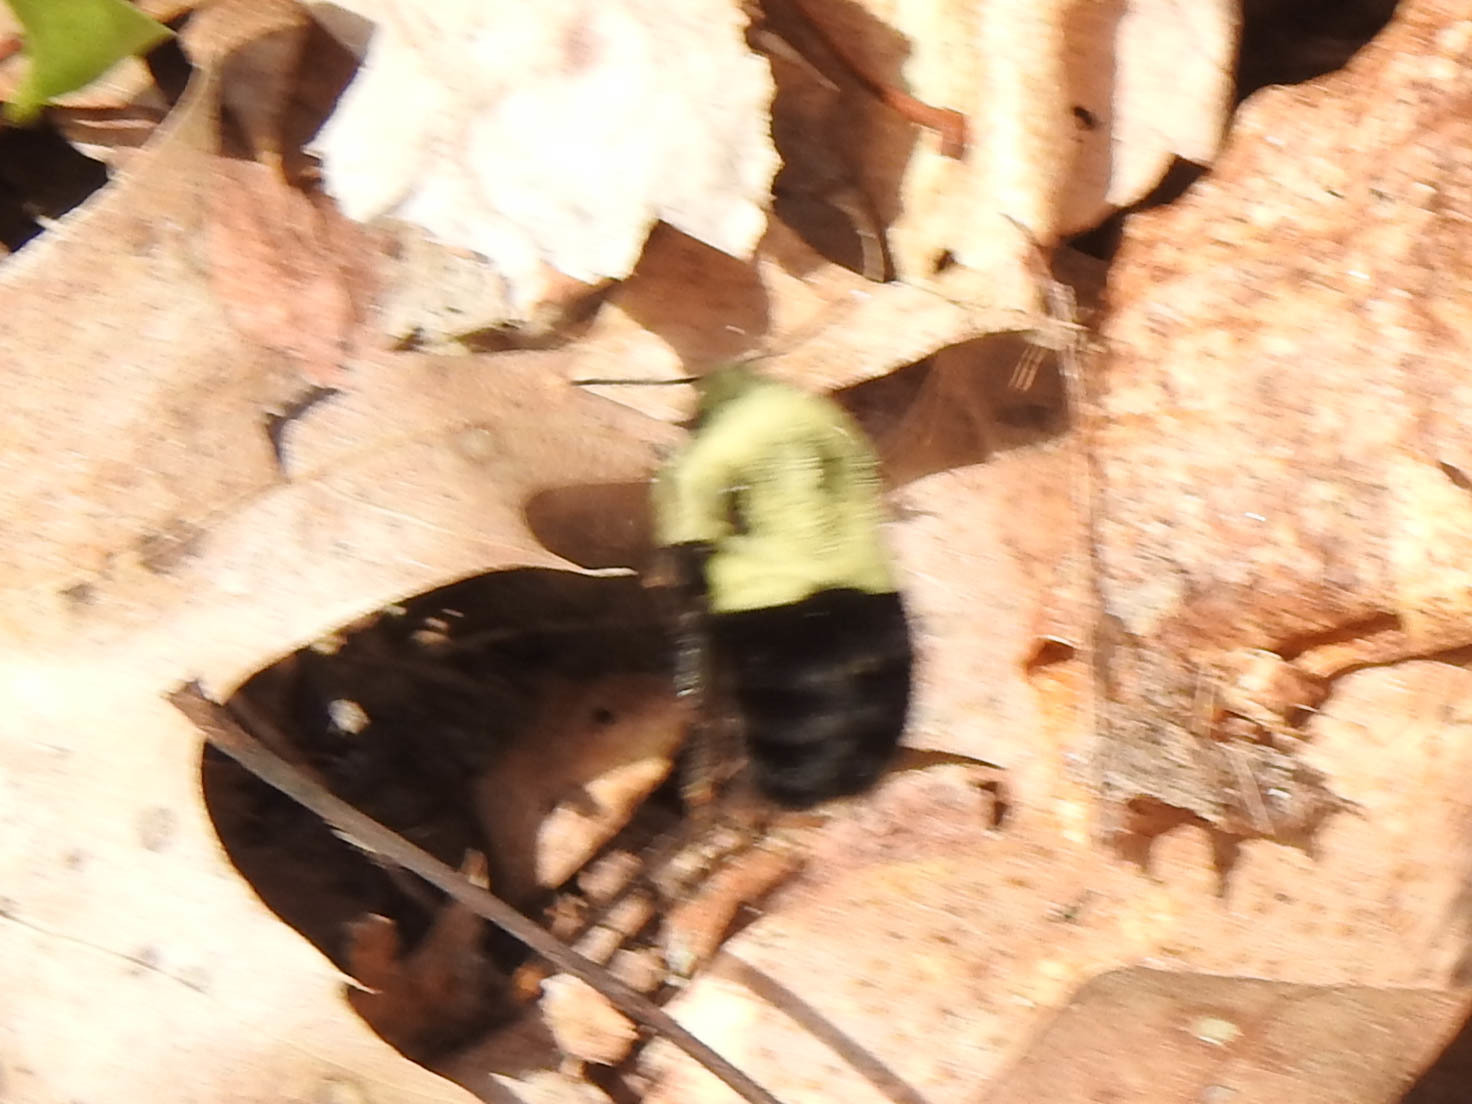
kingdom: Animalia
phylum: Arthropoda
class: Insecta
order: Hymenoptera
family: Apidae
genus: Bombus
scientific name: Bombus impatiens
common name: Common eastern bumble bee
